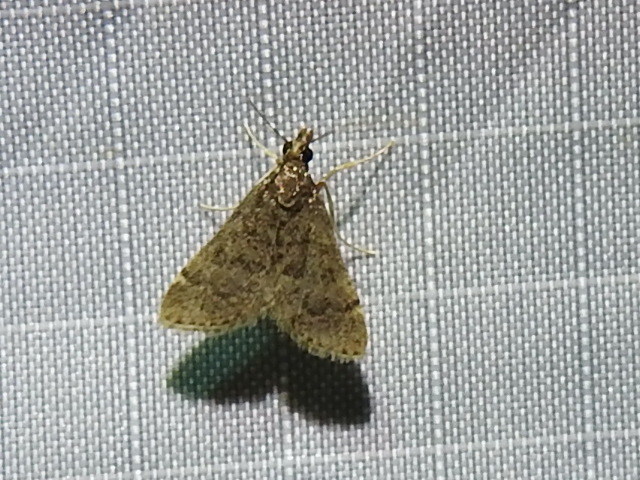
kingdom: Animalia
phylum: Arthropoda
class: Insecta
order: Lepidoptera
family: Crambidae
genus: Steniodes
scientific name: Steniodes declivalis
